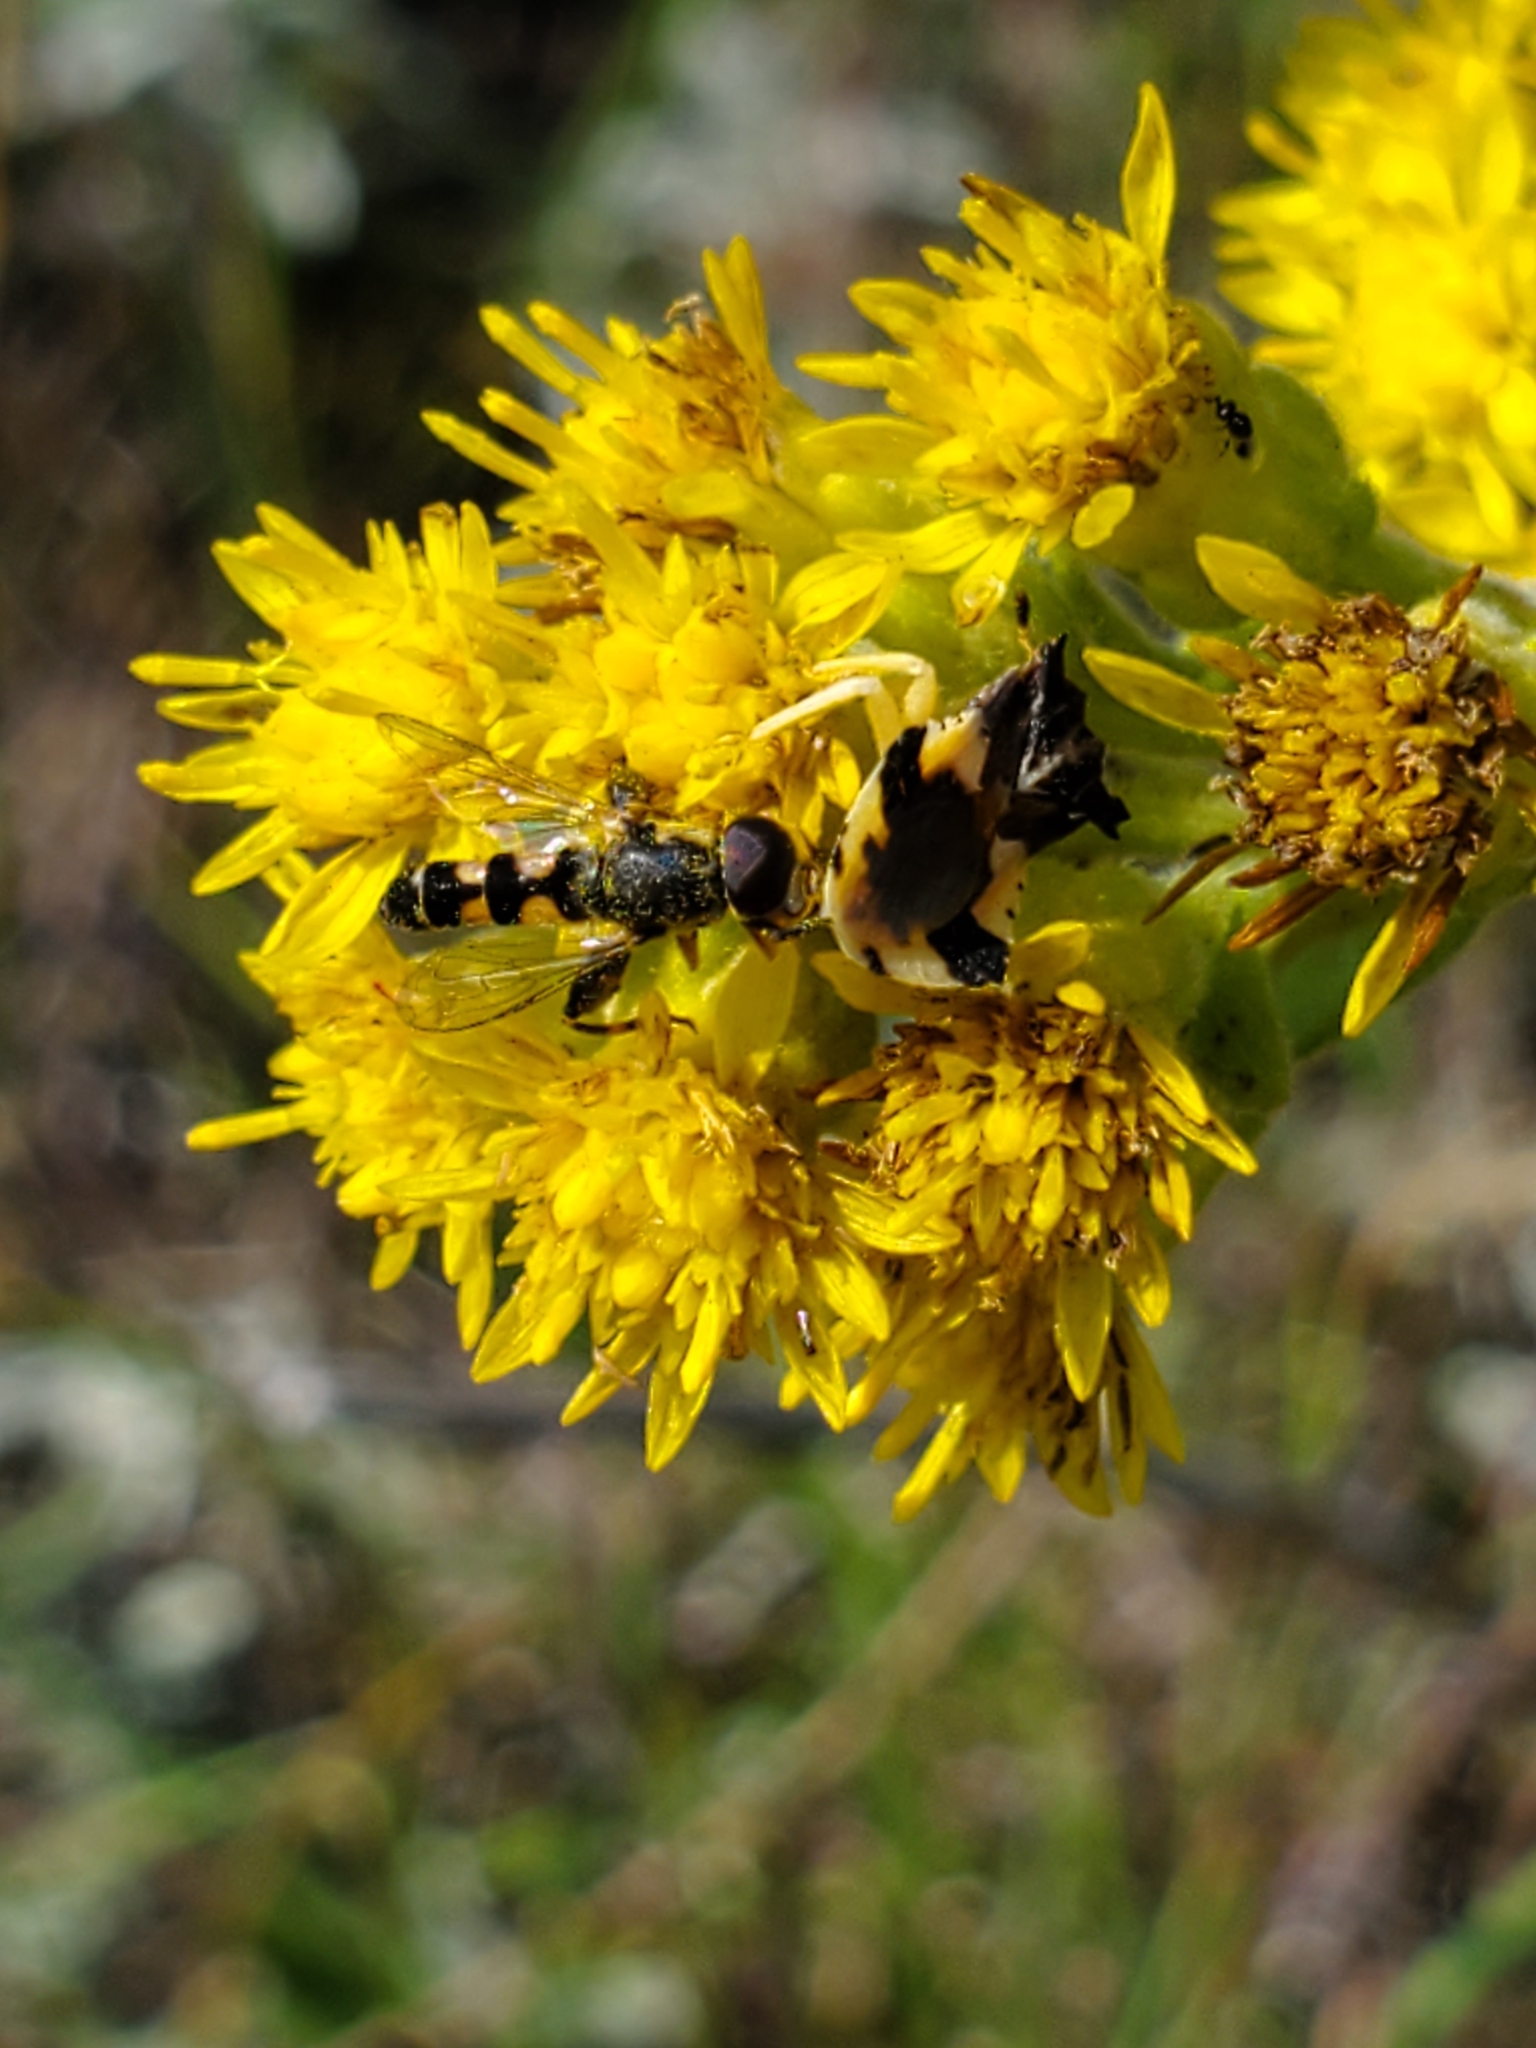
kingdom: Animalia
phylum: Arthropoda
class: Insecta
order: Diptera
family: Syrphidae
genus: Syritta
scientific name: Syritta pipiens
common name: Hover fly
